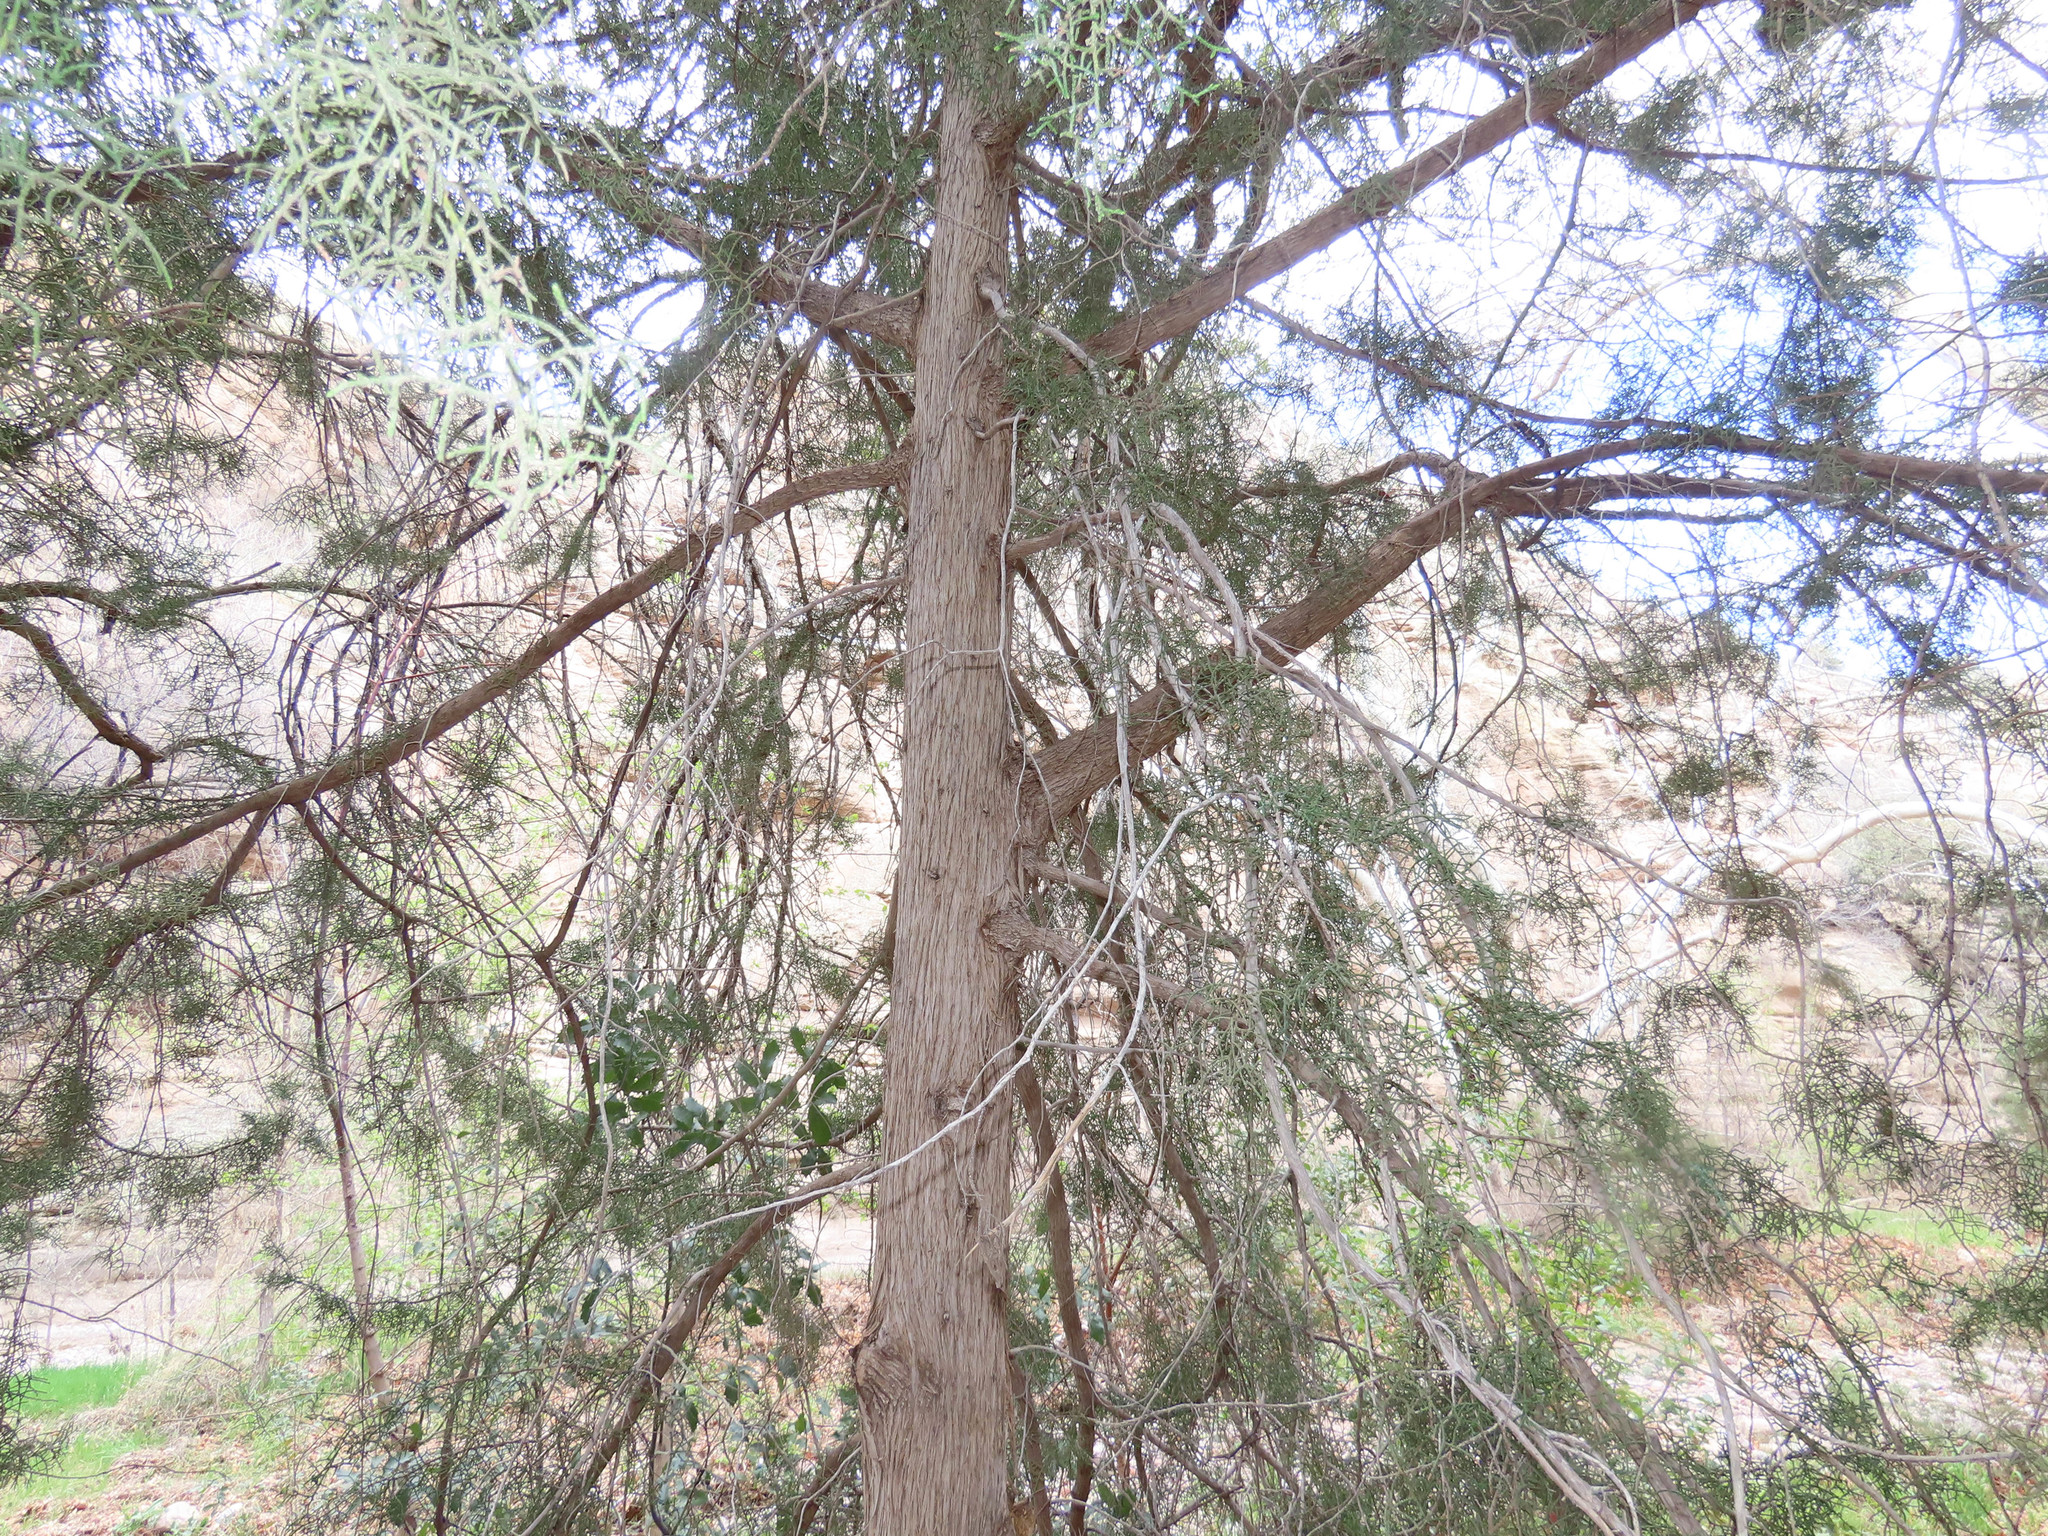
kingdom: Plantae
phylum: Tracheophyta
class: Pinopsida
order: Pinales
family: Cupressaceae
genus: Cupressus
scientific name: Cupressus arizonica
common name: Arizona cypress
